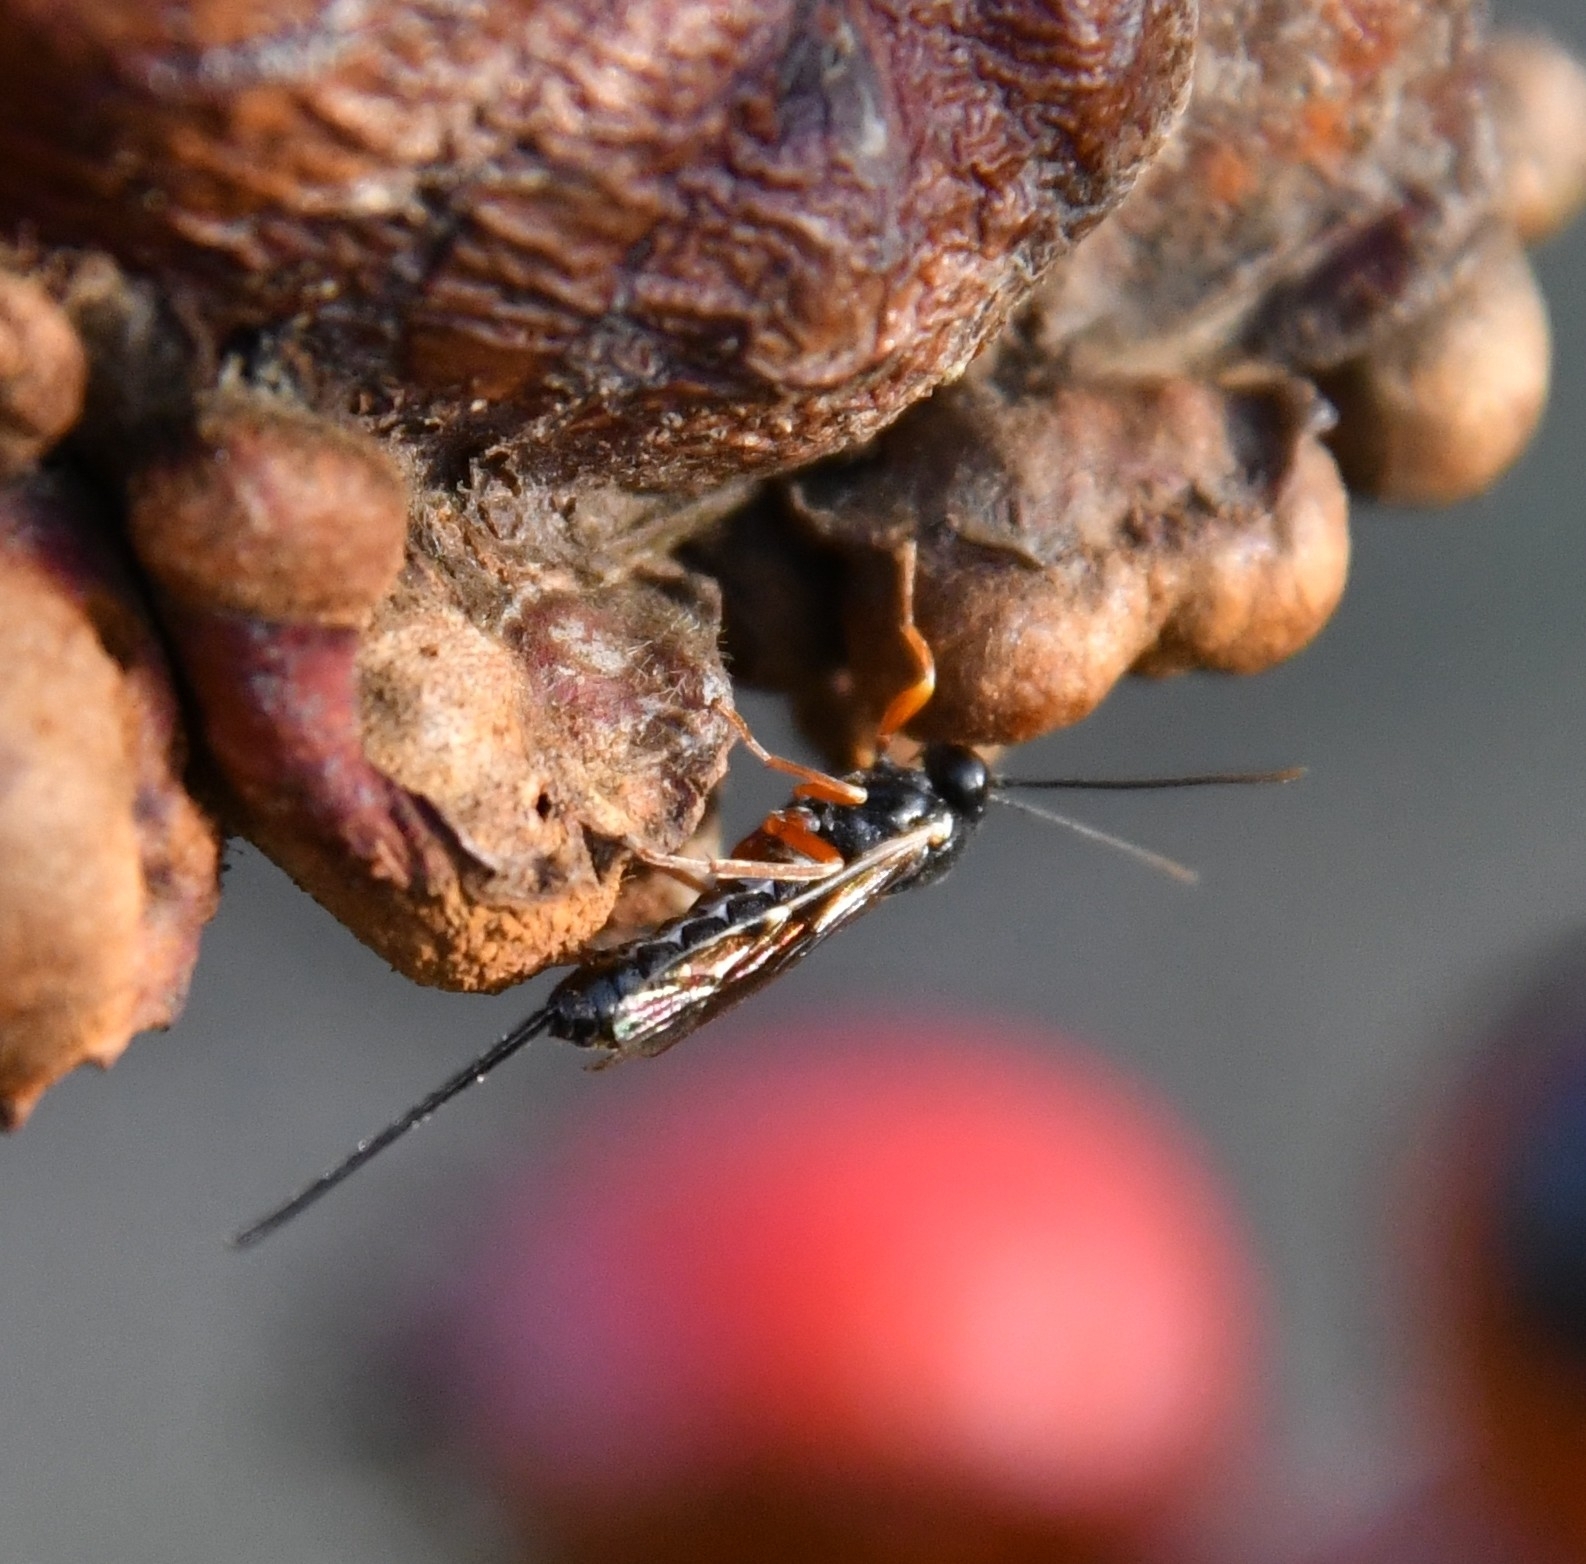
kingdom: Animalia
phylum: Arthropoda
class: Insecta
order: Hymenoptera
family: Ichneumonidae
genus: Exeristes
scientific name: Exeristes roborator
